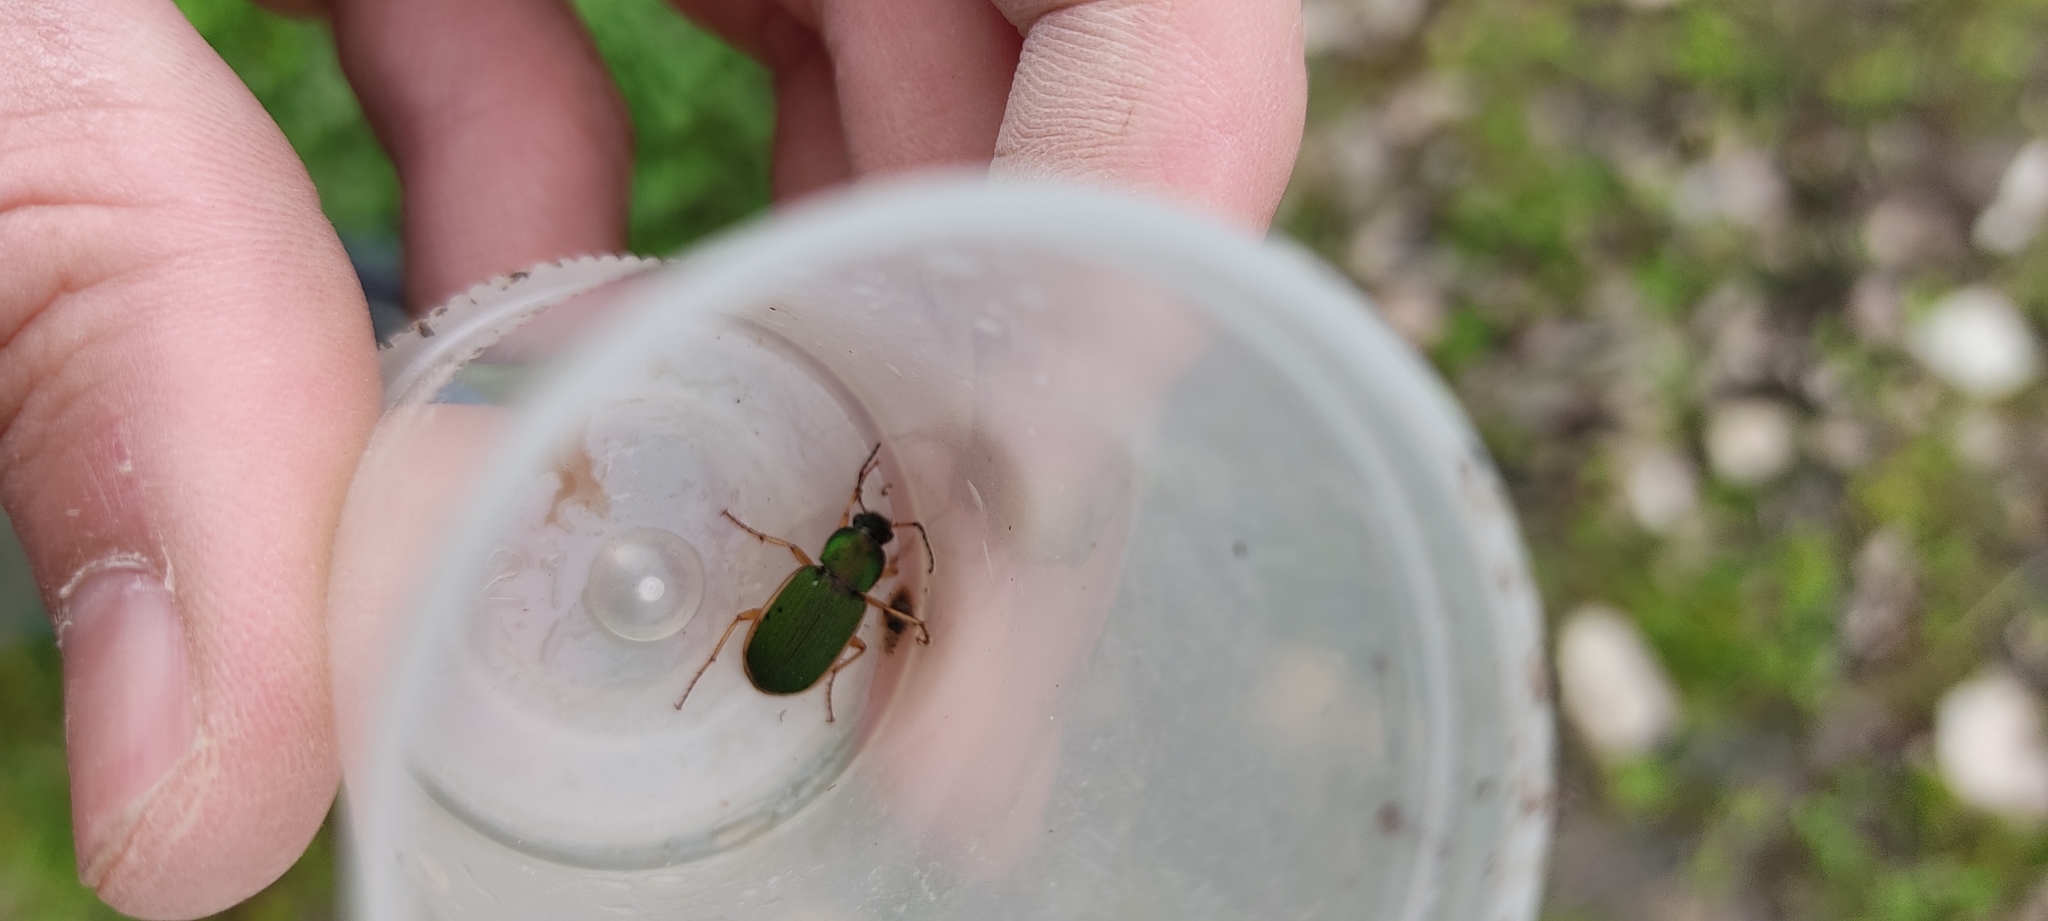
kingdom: Animalia
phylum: Arthropoda
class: Insecta
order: Coleoptera
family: Carabidae
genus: Chlaenius
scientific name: Chlaenius olivieri
